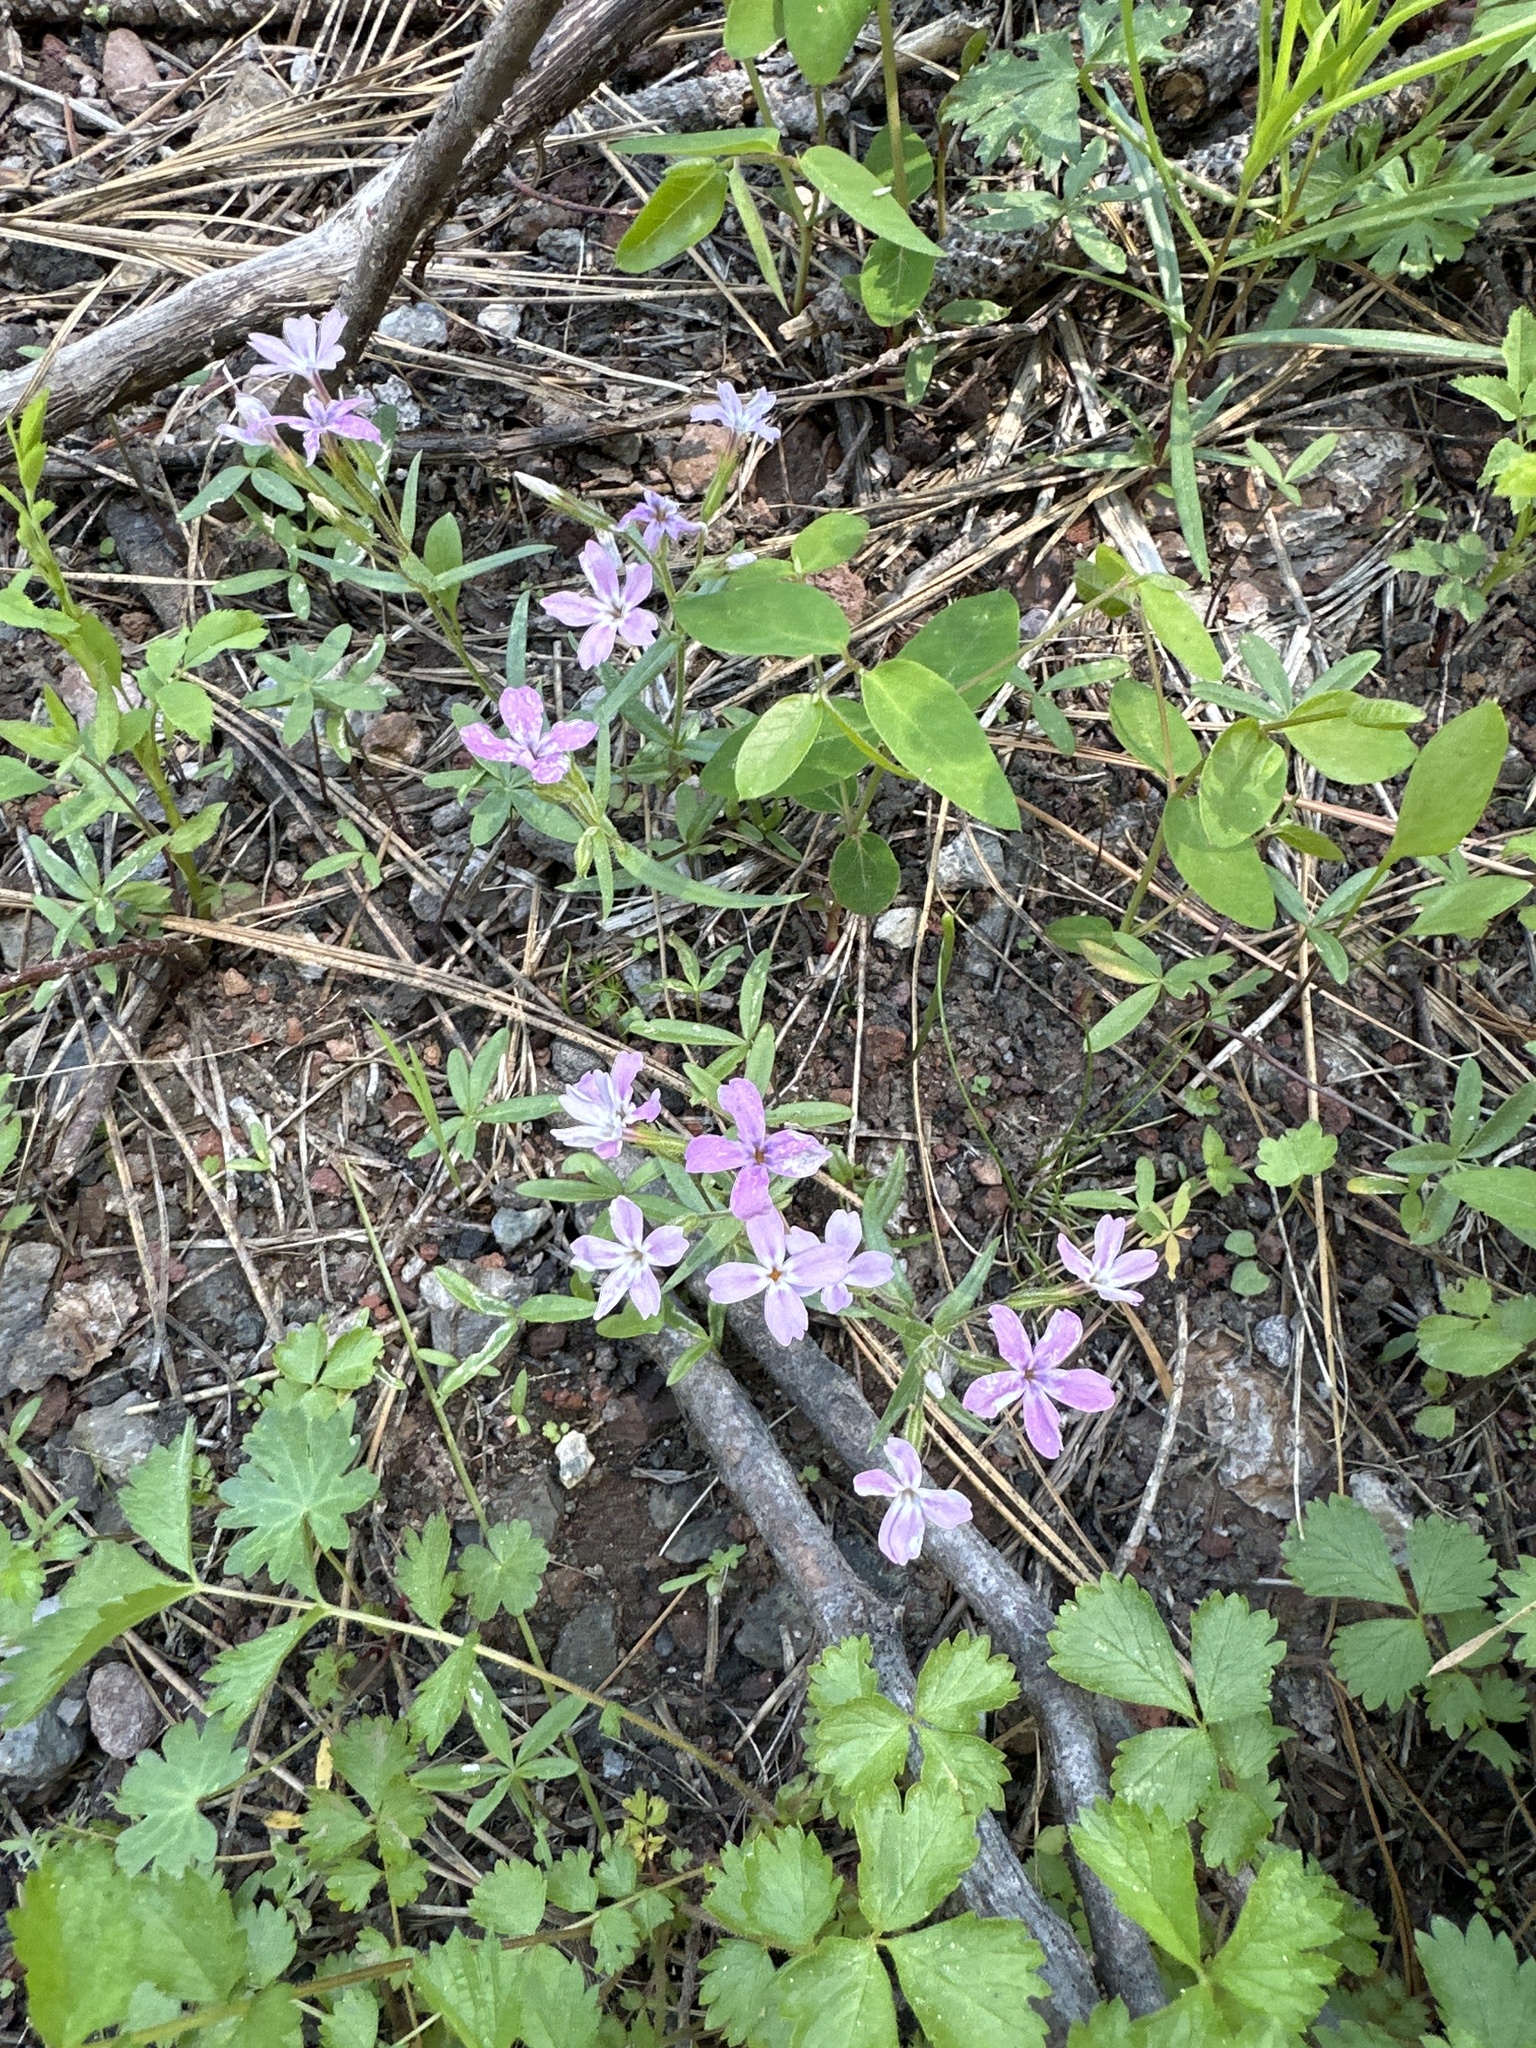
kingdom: Plantae
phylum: Tracheophyta
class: Magnoliopsida
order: Ericales
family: Polemoniaceae
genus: Phlox
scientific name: Phlox speciosa
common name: Bush phlox
